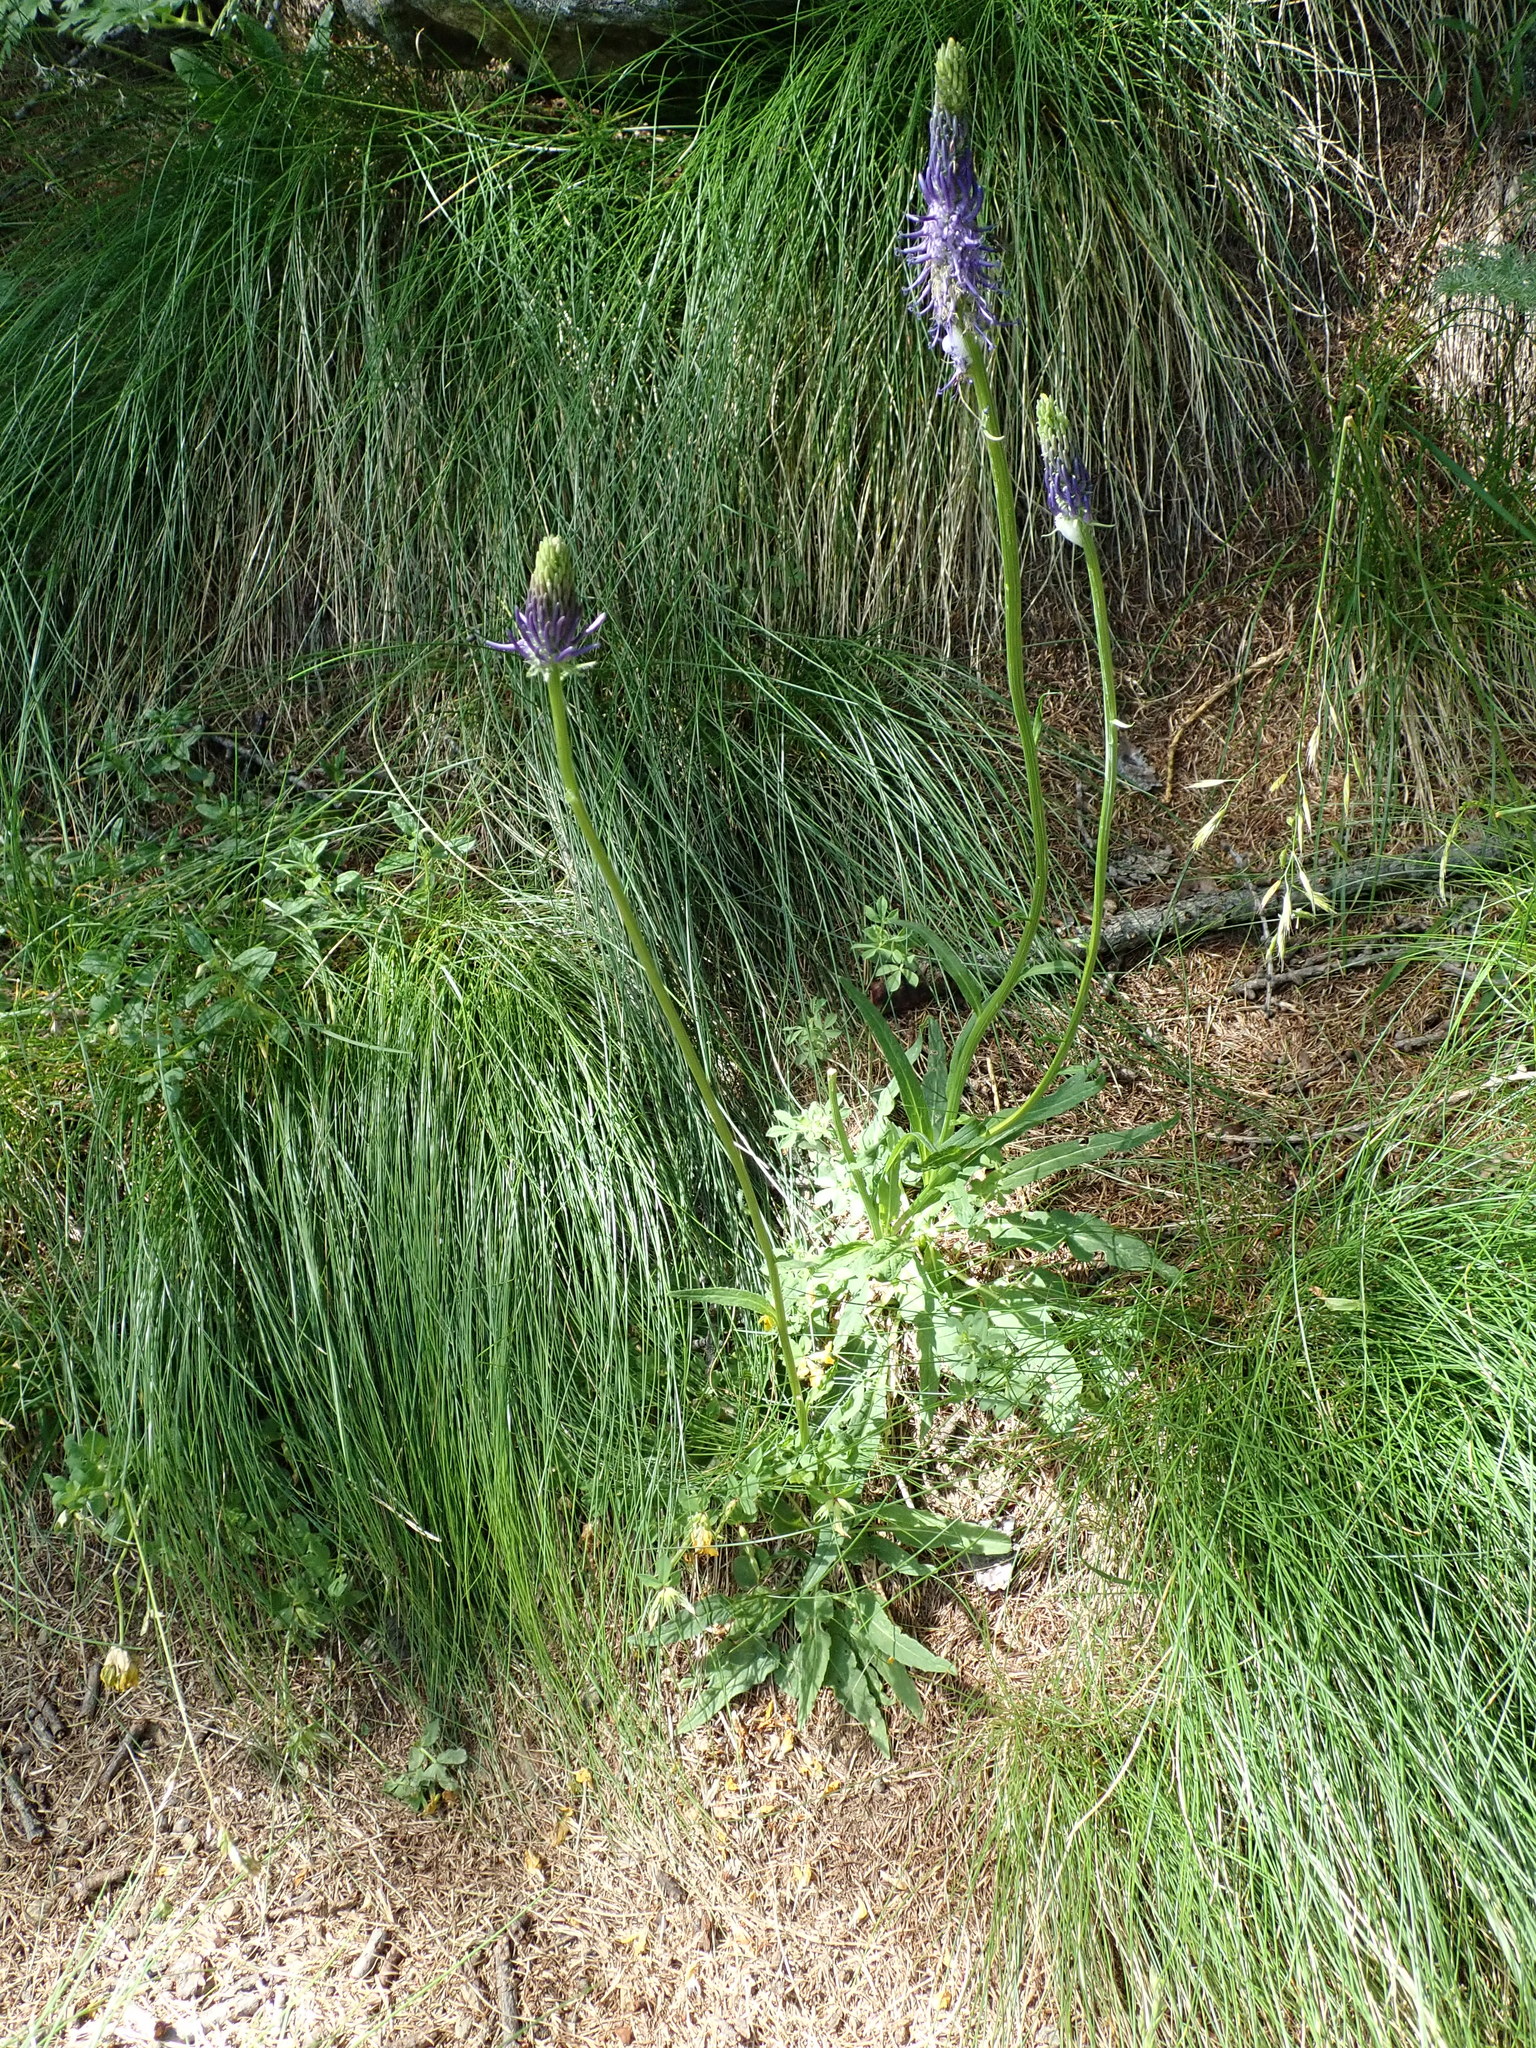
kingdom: Plantae
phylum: Tracheophyta
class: Magnoliopsida
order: Asterales
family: Campanulaceae
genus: Phyteuma
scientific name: Phyteuma betonicifolium
